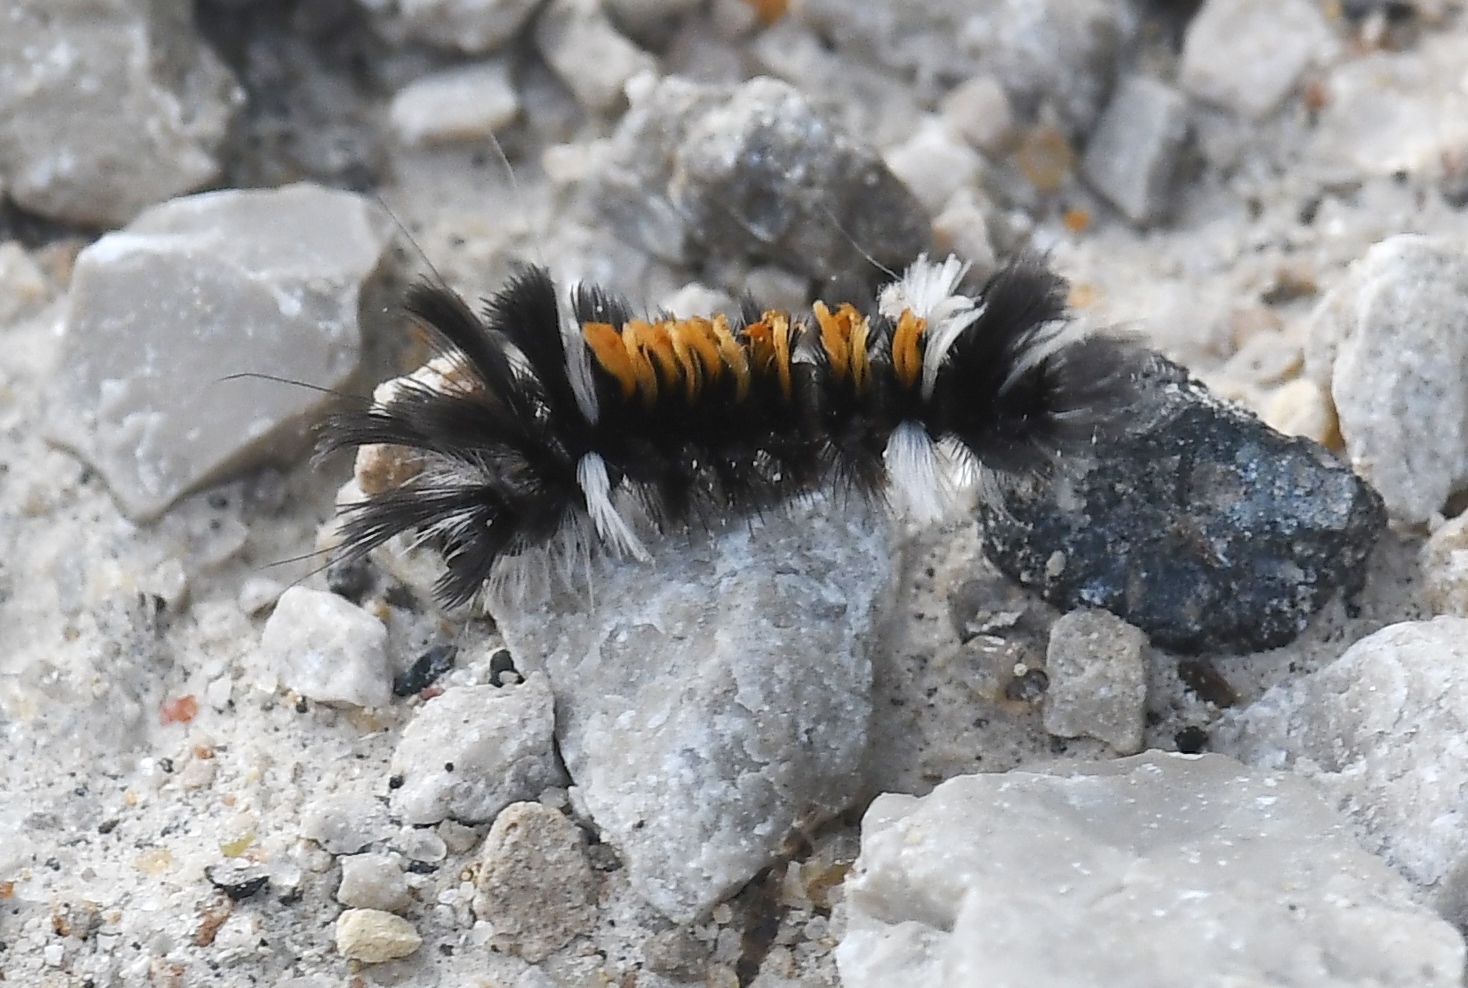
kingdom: Animalia
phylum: Arthropoda
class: Insecta
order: Lepidoptera
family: Erebidae
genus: Euchaetes
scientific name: Euchaetes egle
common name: Milkweed tussock moth
